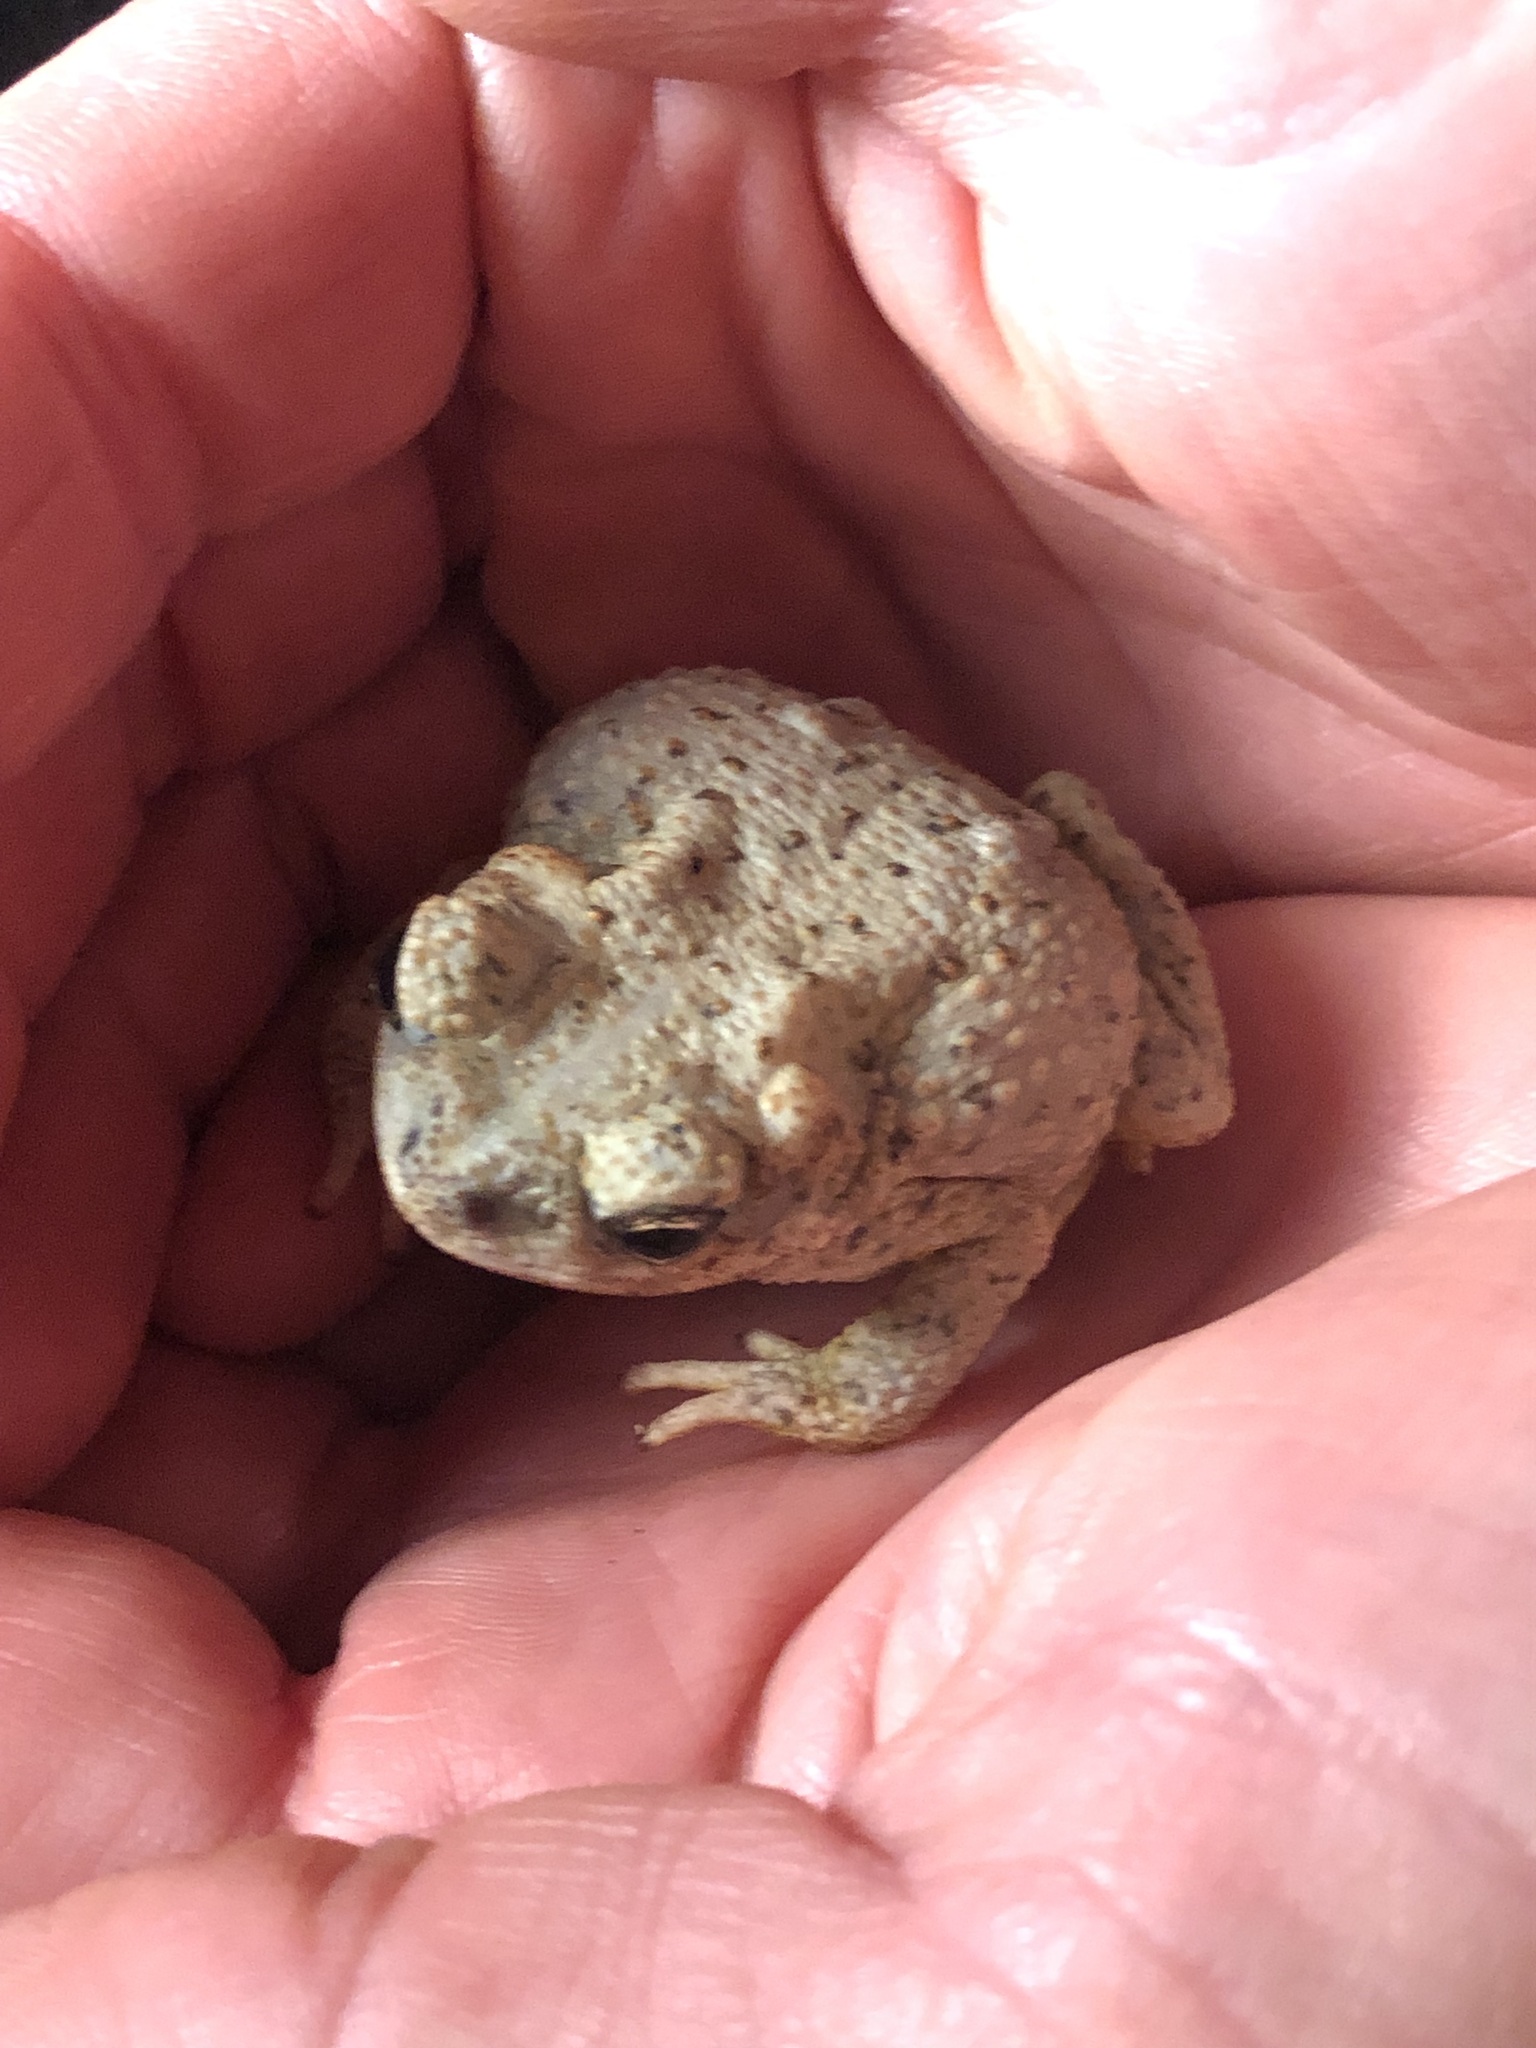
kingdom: Animalia
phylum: Chordata
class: Amphibia
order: Anura
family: Bufonidae
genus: Anaxyrus
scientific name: Anaxyrus punctatus
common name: Red-spotted toad
